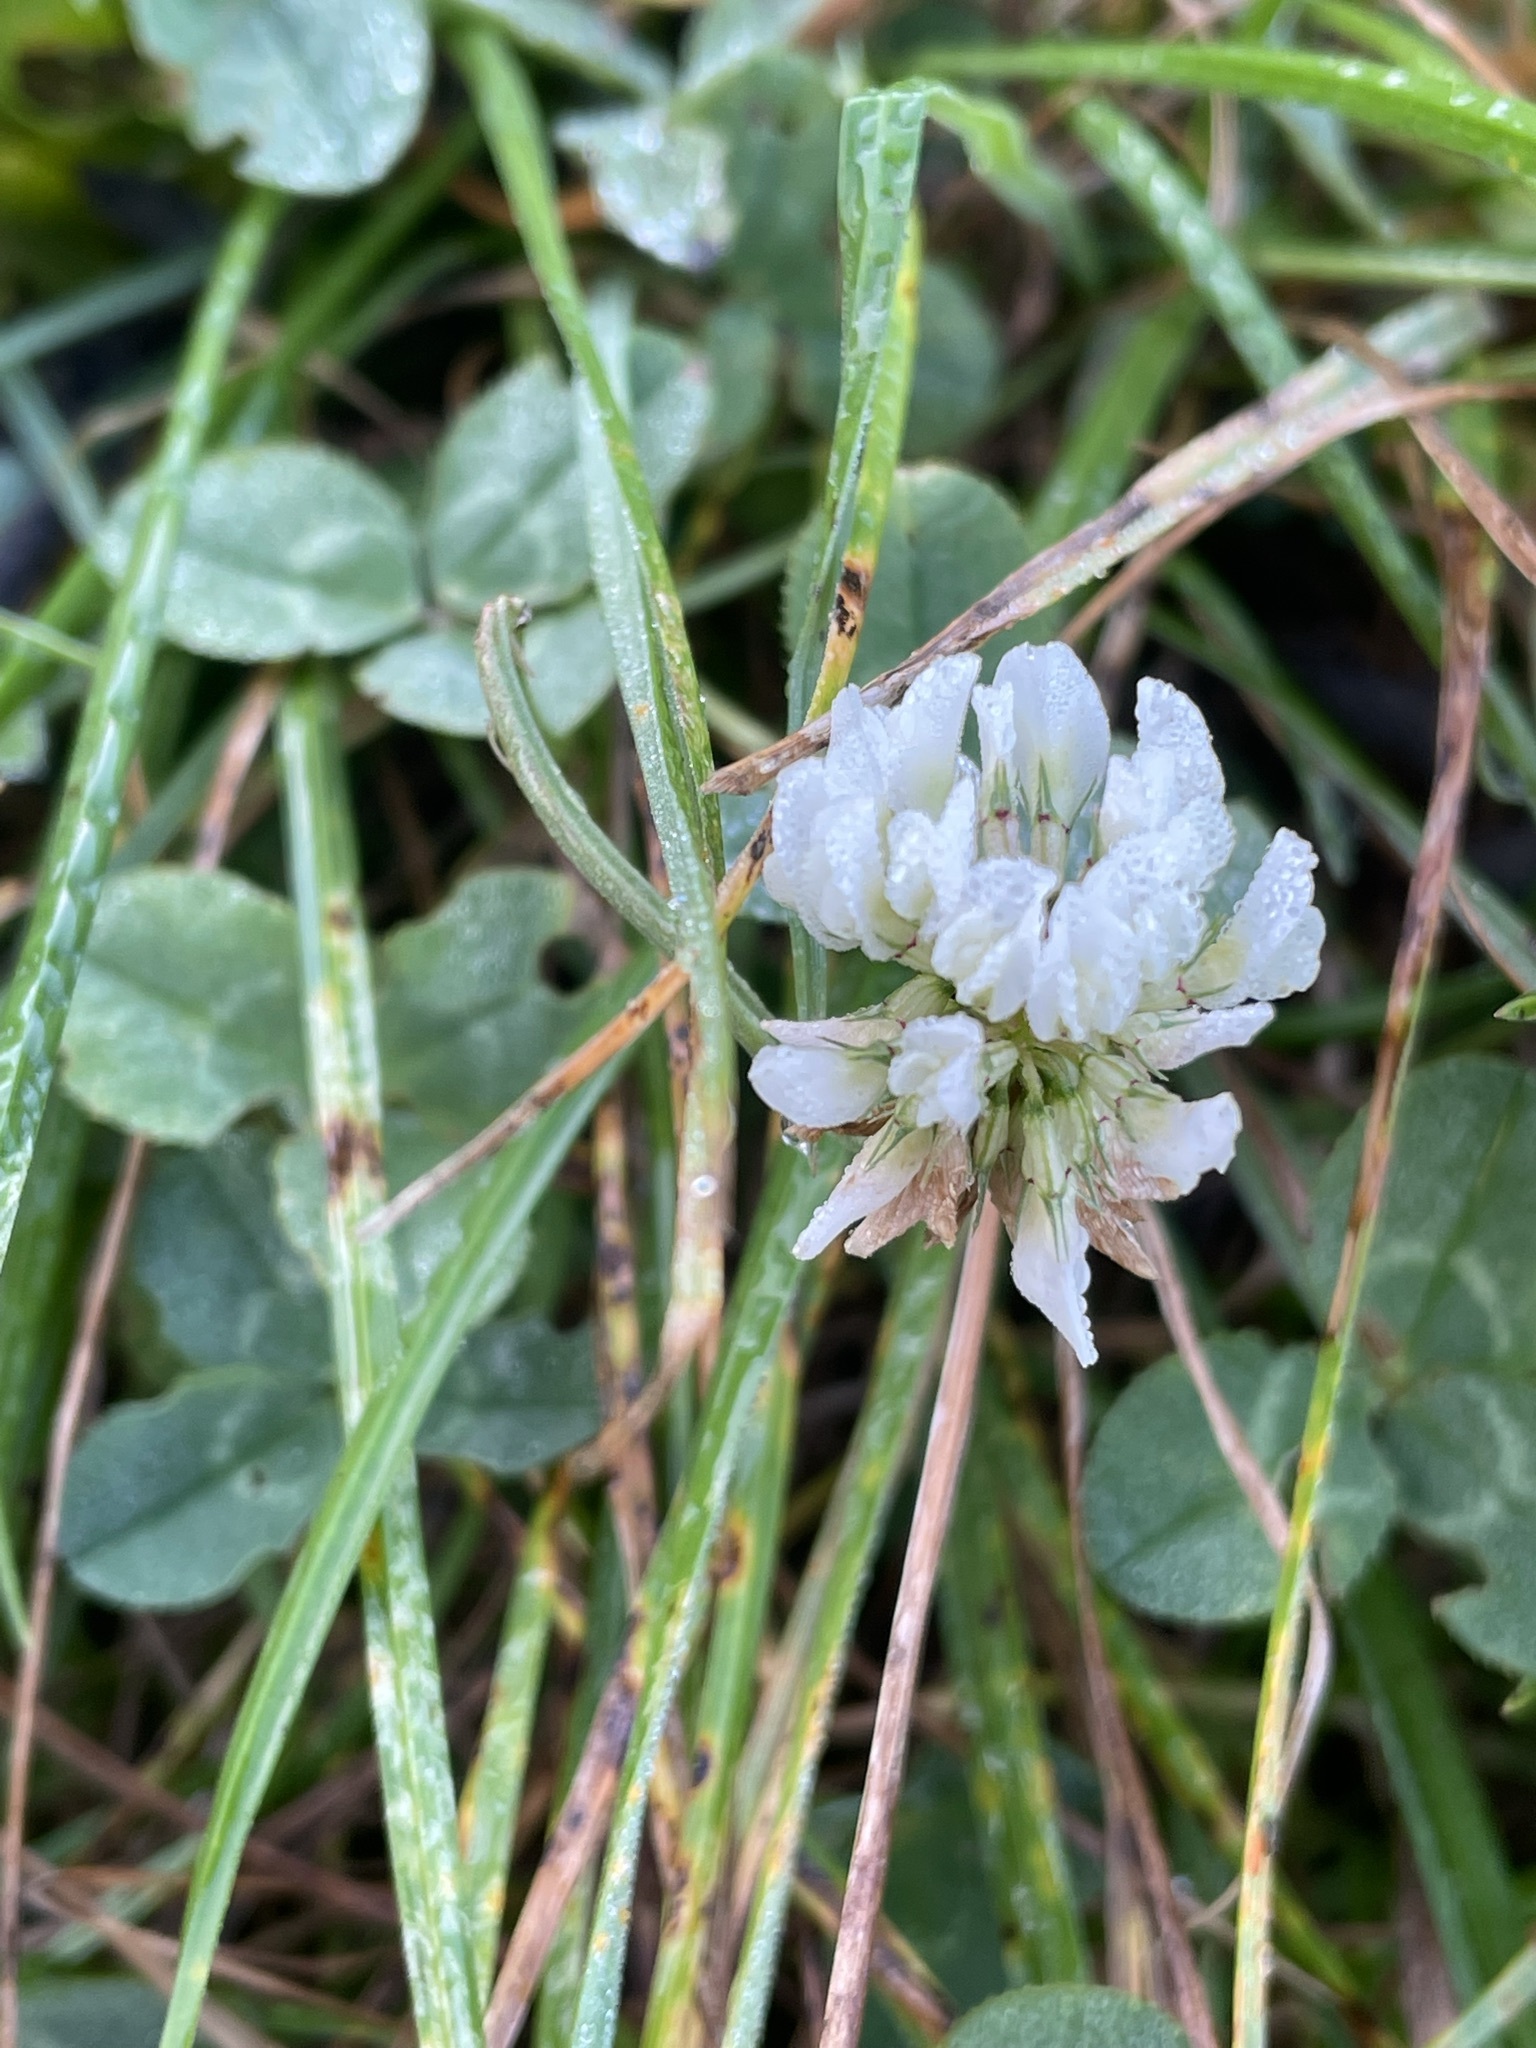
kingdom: Plantae
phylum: Tracheophyta
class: Magnoliopsida
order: Fabales
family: Fabaceae
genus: Trifolium
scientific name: Trifolium repens
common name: White clover
